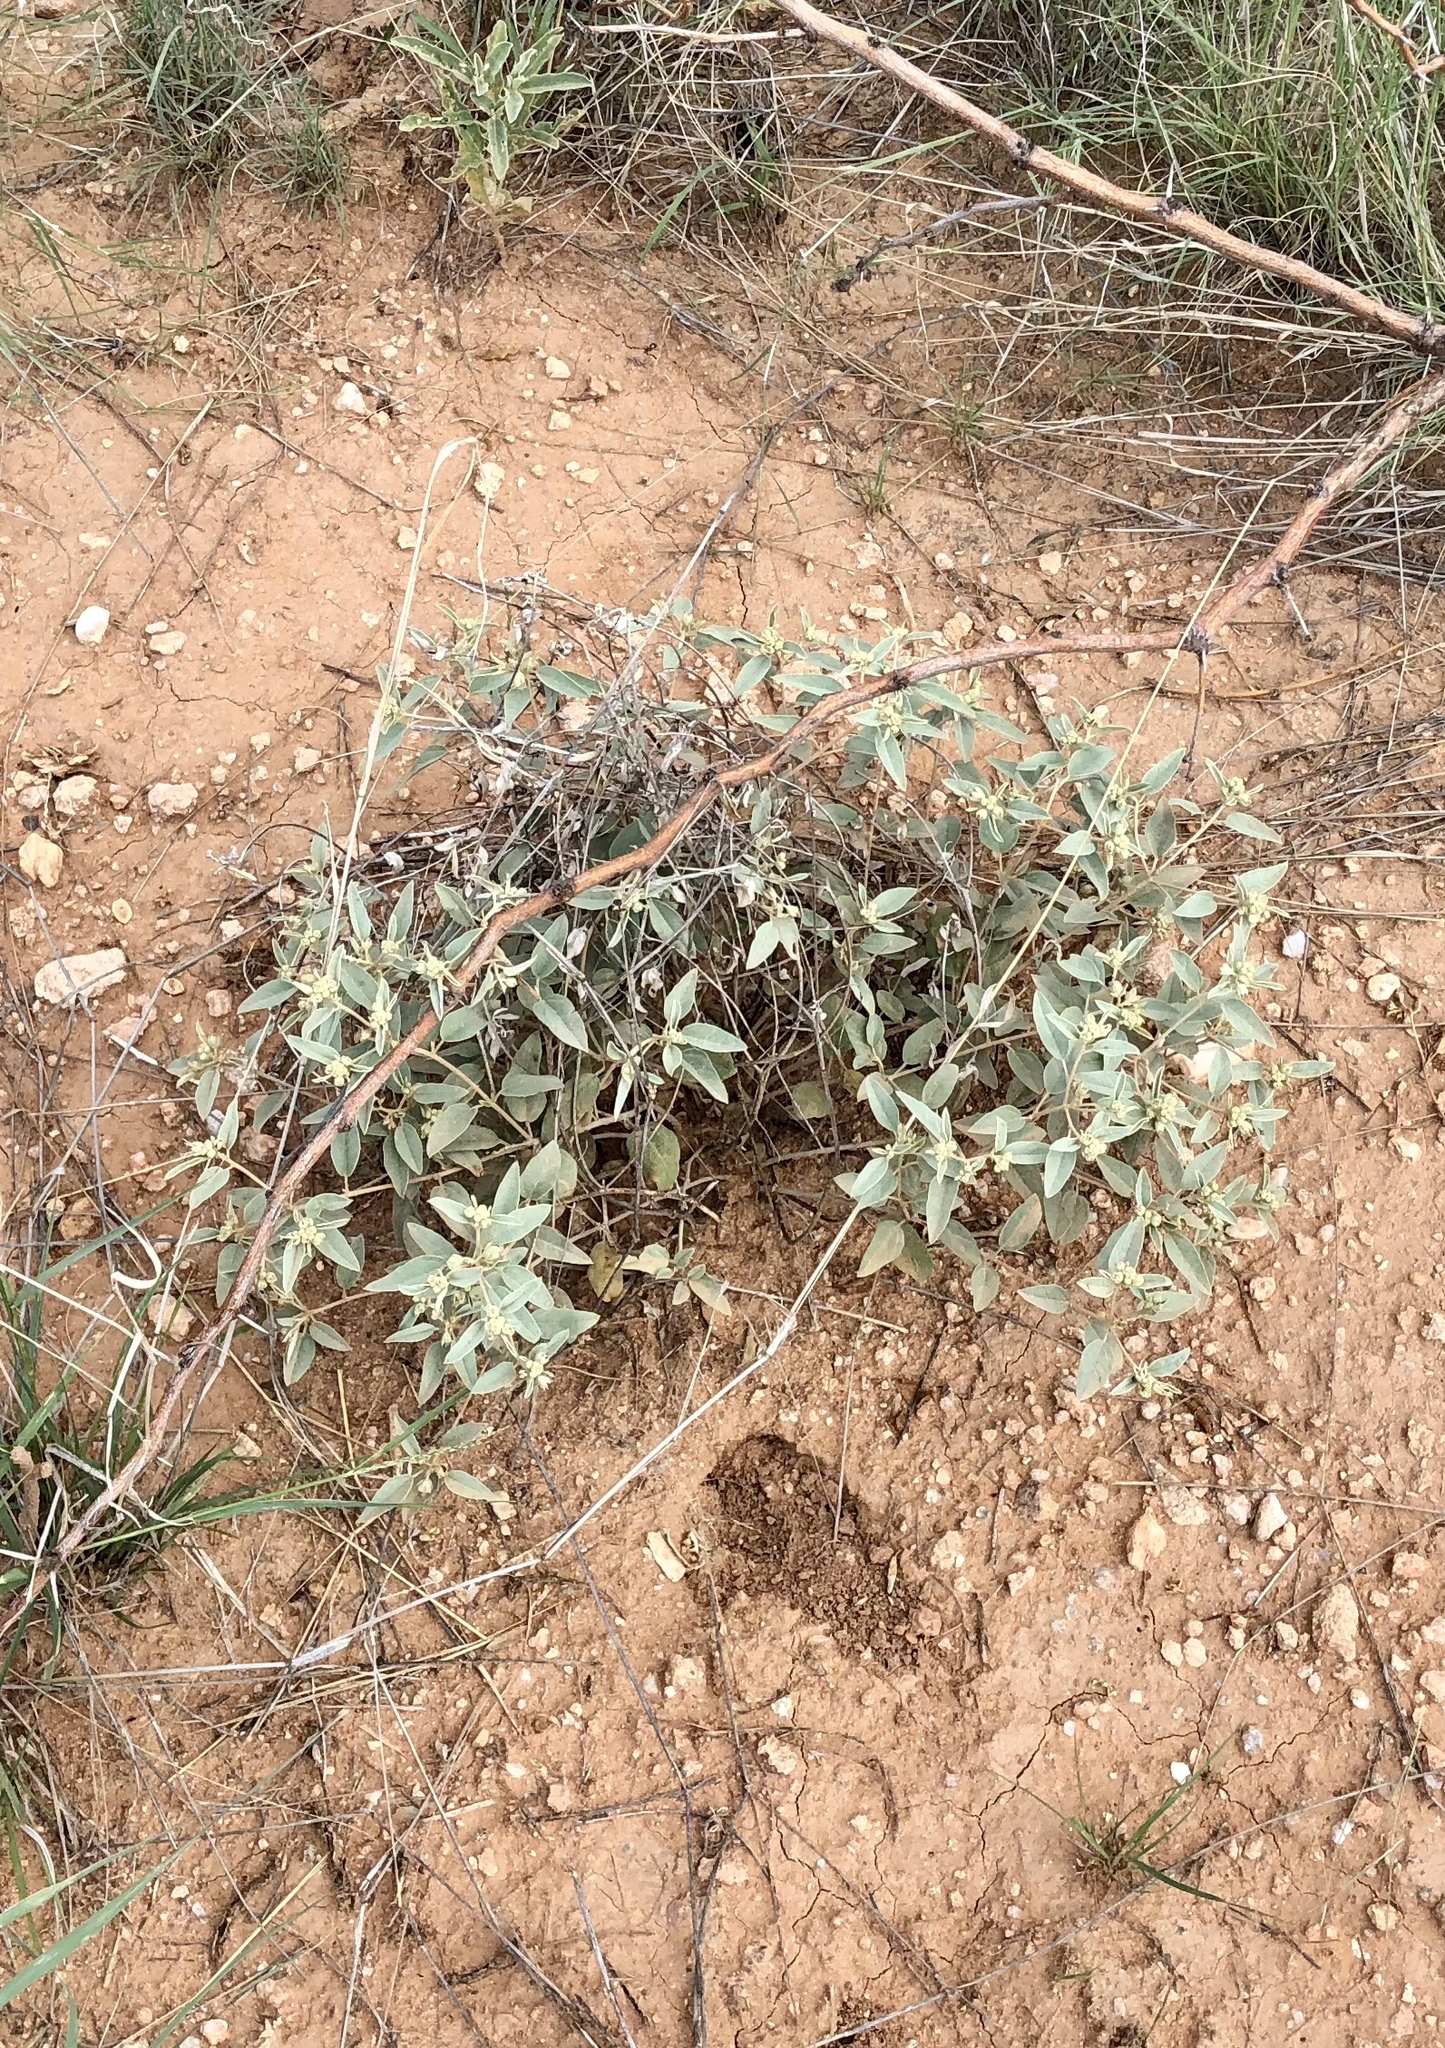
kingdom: Plantae
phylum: Tracheophyta
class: Magnoliopsida
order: Malpighiales
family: Euphorbiaceae
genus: Croton
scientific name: Croton pottsii
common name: Leatherweed
